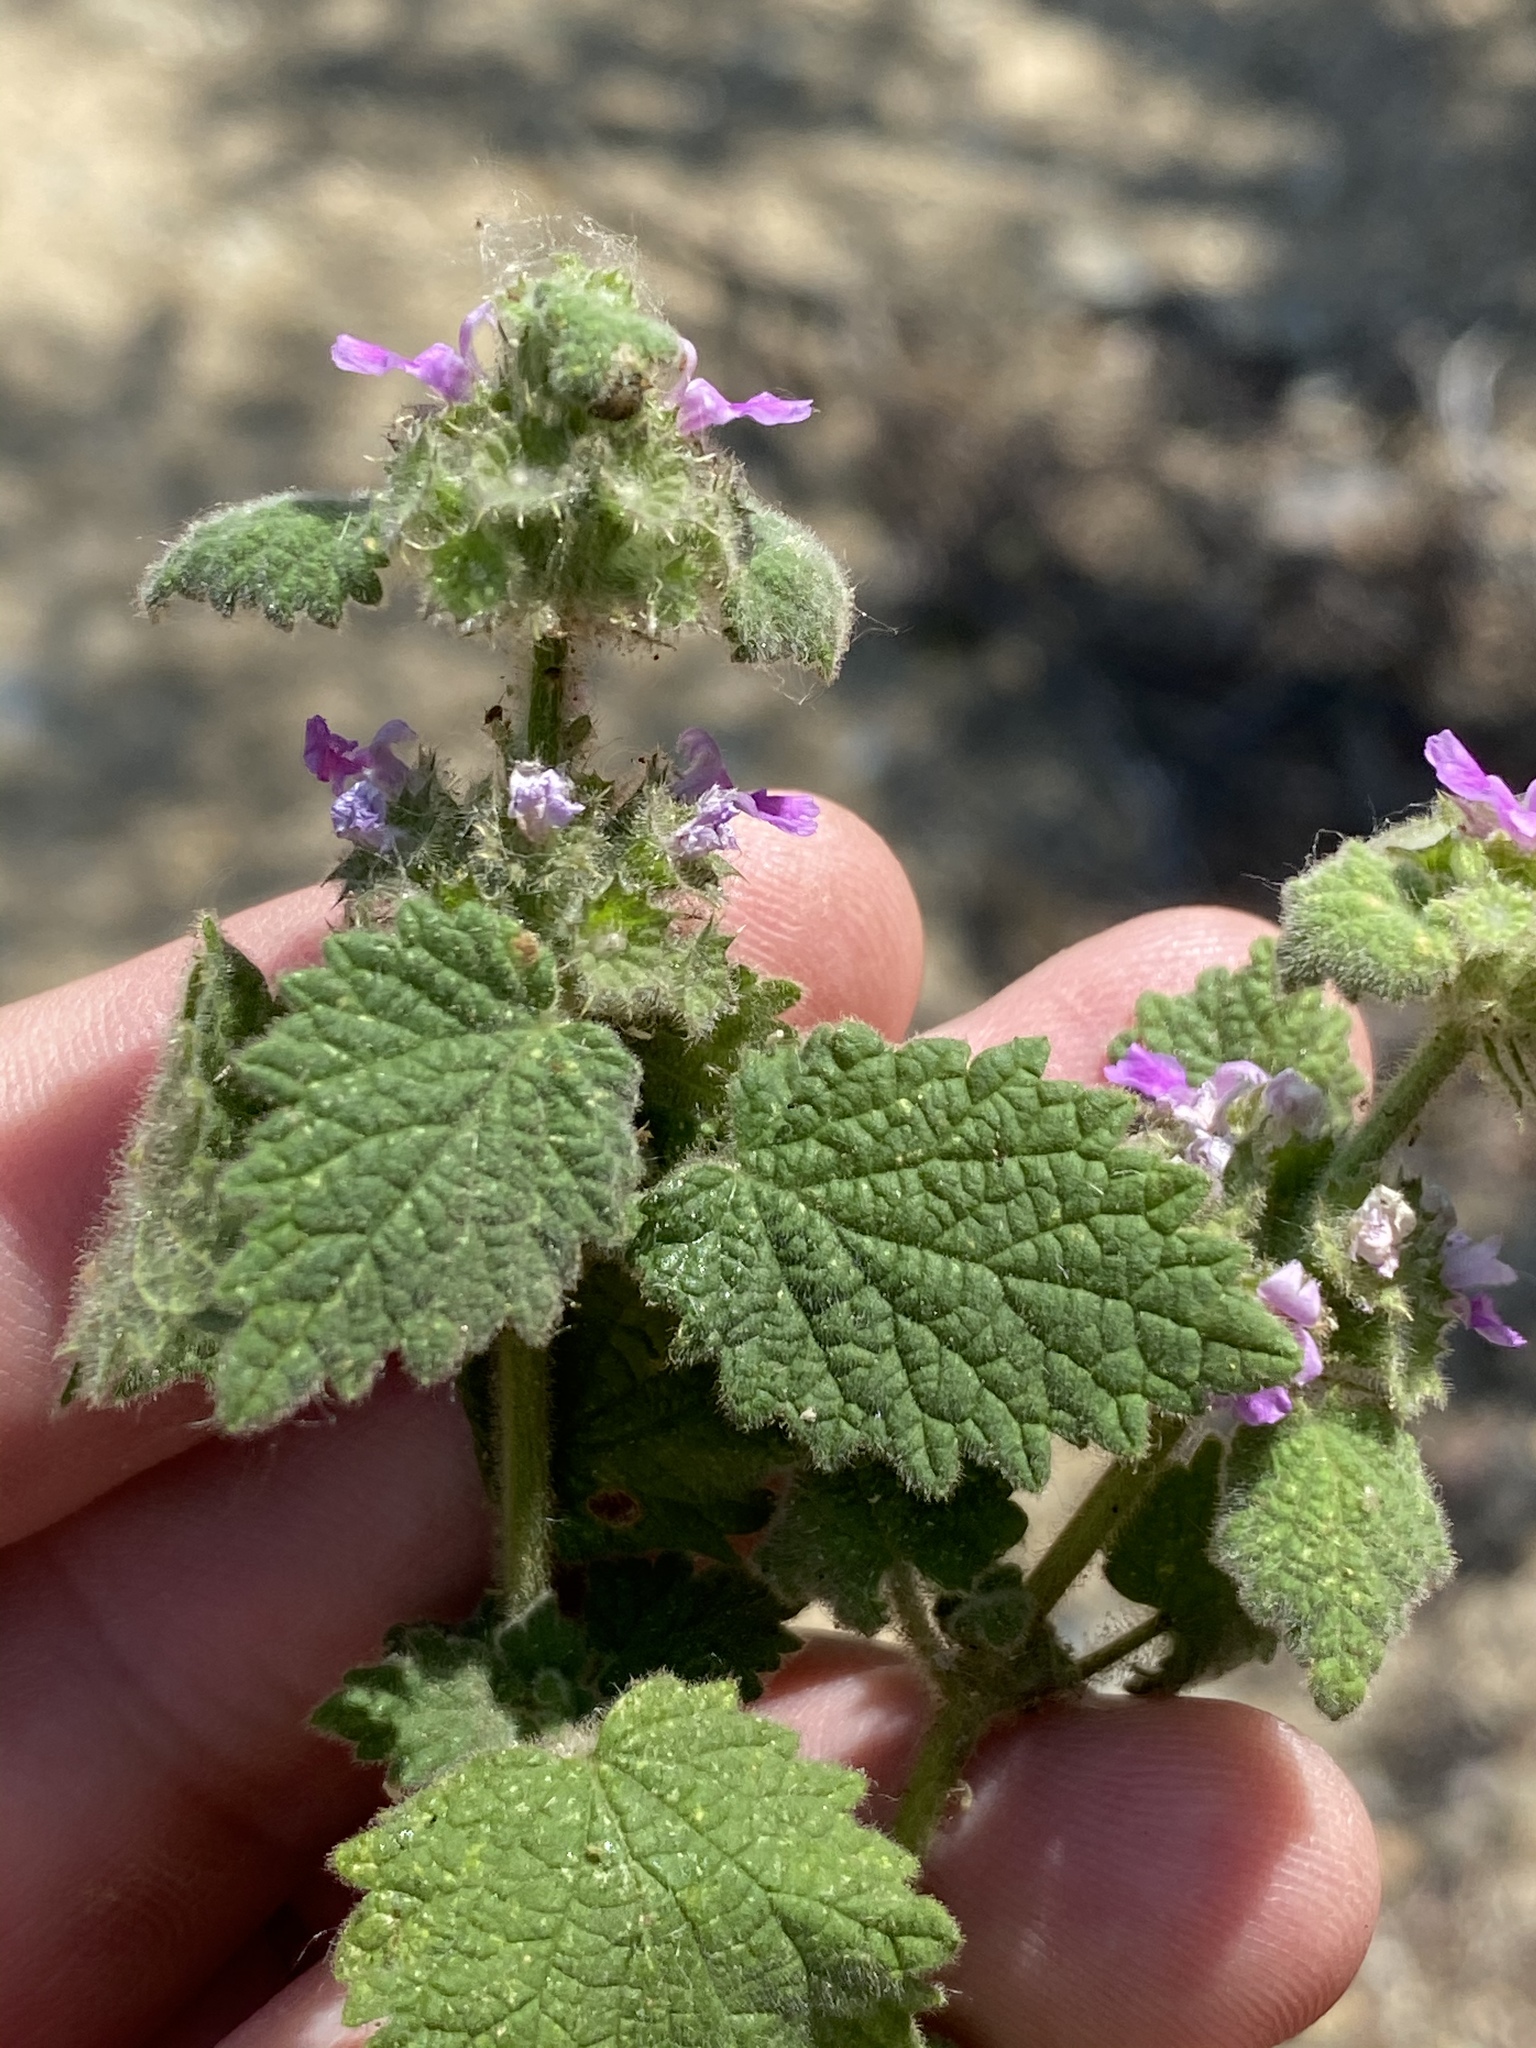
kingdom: Plantae
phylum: Tracheophyta
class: Magnoliopsida
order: Lamiales
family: Lamiaceae
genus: Pseudodictamnus
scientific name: Pseudodictamnus africanus
